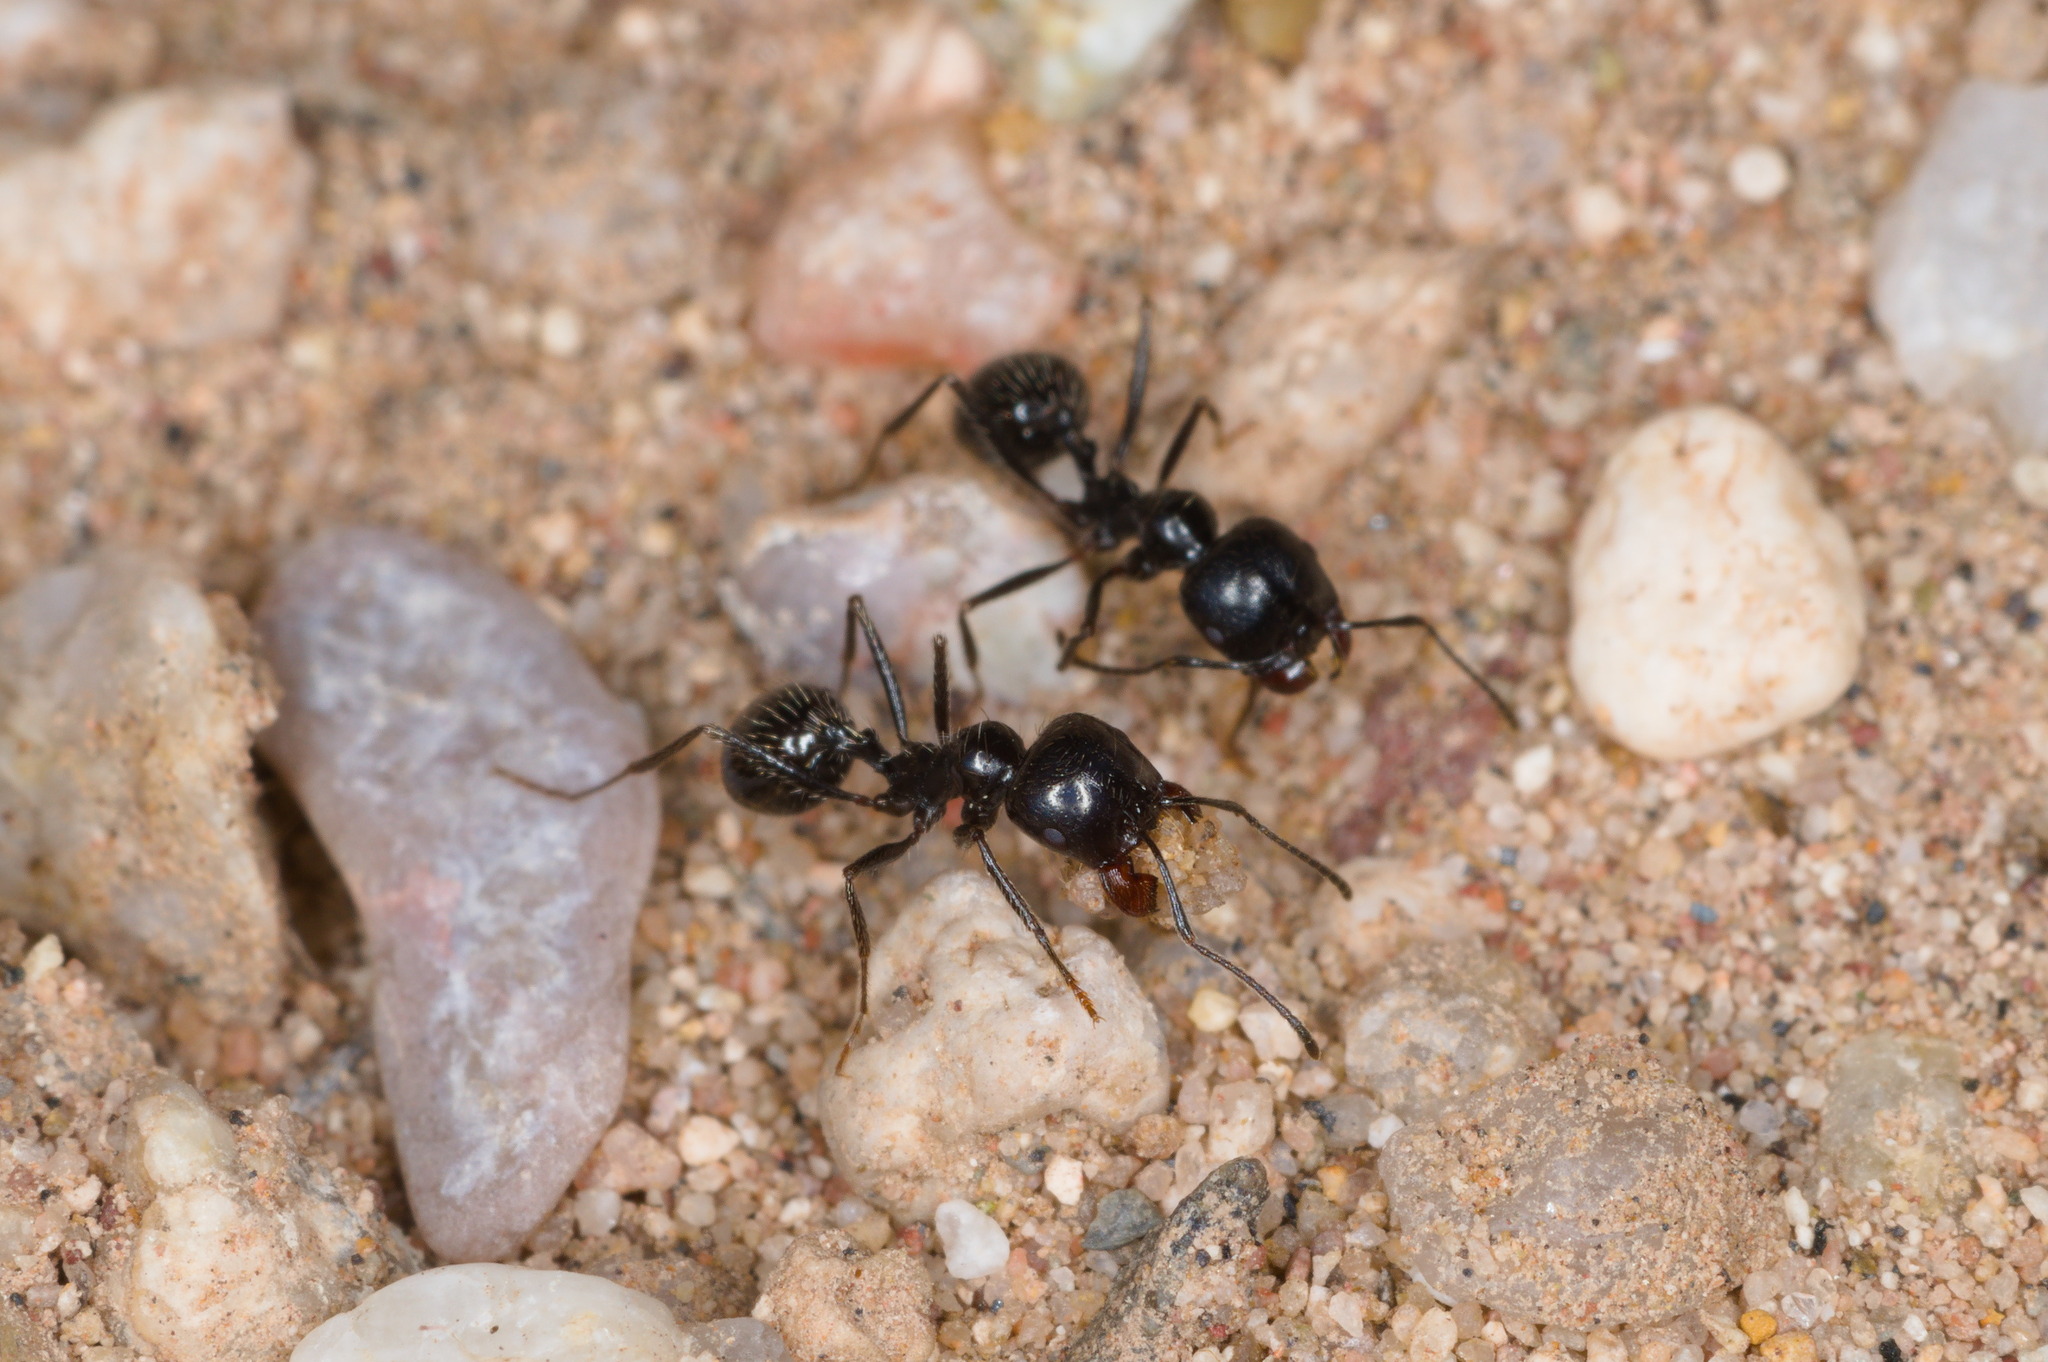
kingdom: Animalia
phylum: Arthropoda
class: Insecta
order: Hymenoptera
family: Formicidae
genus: Messor
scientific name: Messor pergandei
